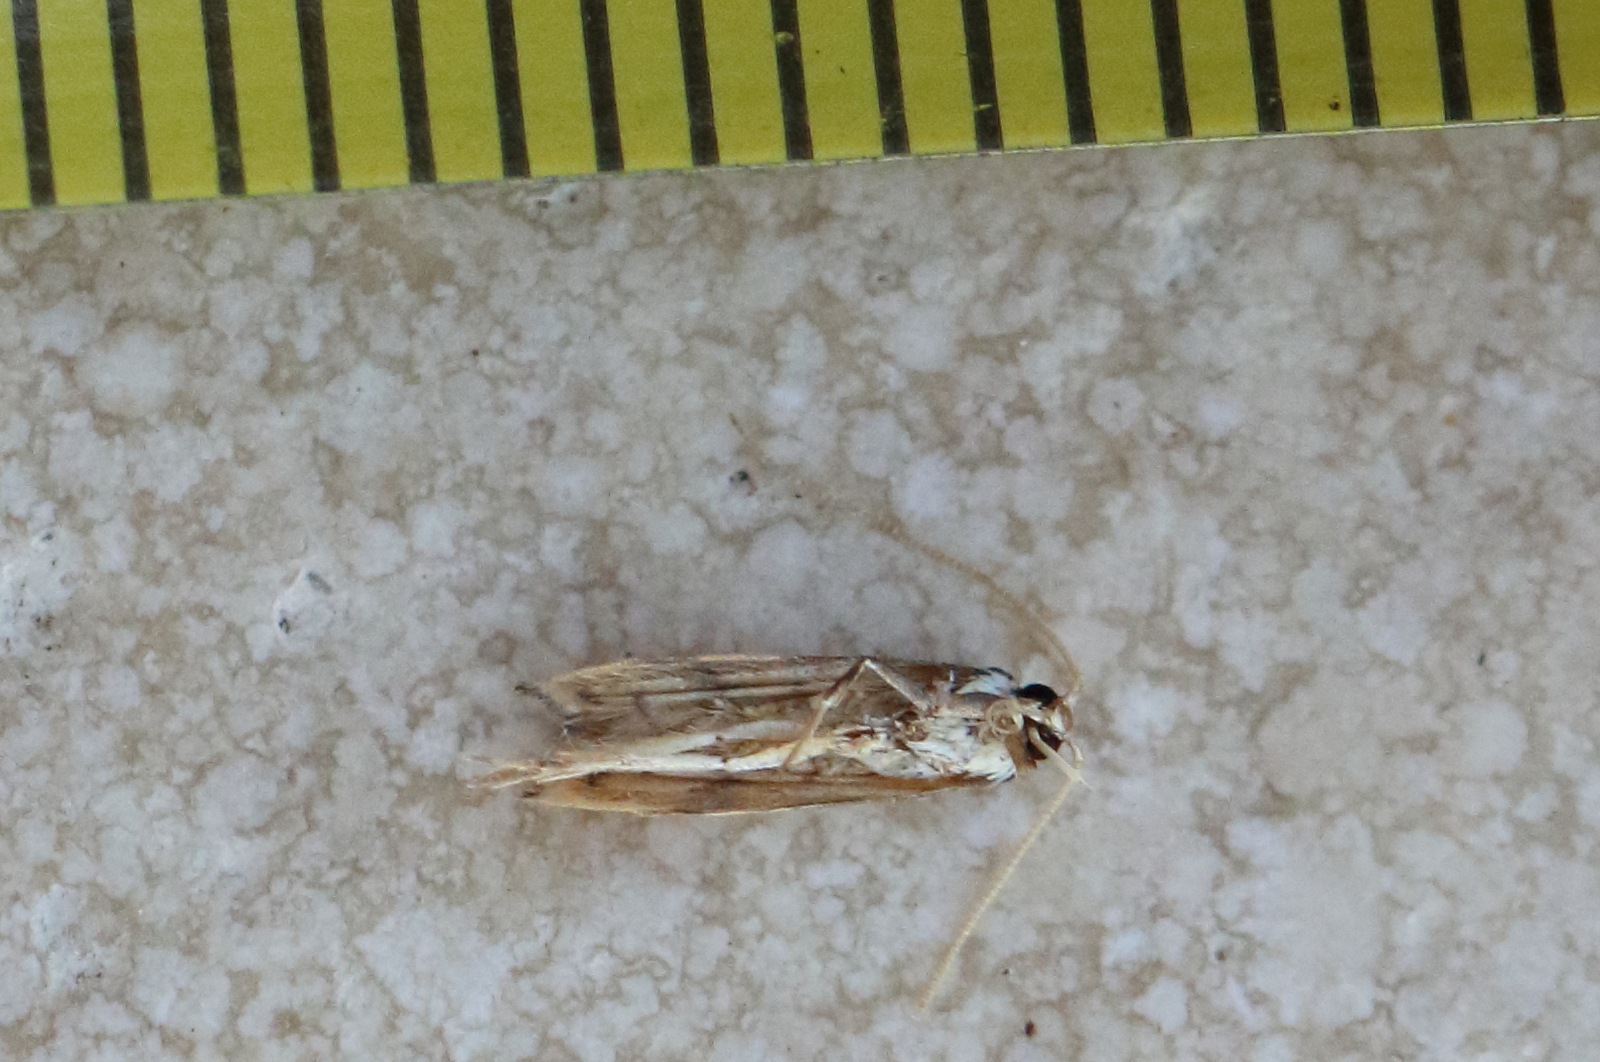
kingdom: Animalia
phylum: Arthropoda
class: Insecta
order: Lepidoptera
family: Lecithoceridae
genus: Crocanthes
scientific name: Crocanthes perigrapta
